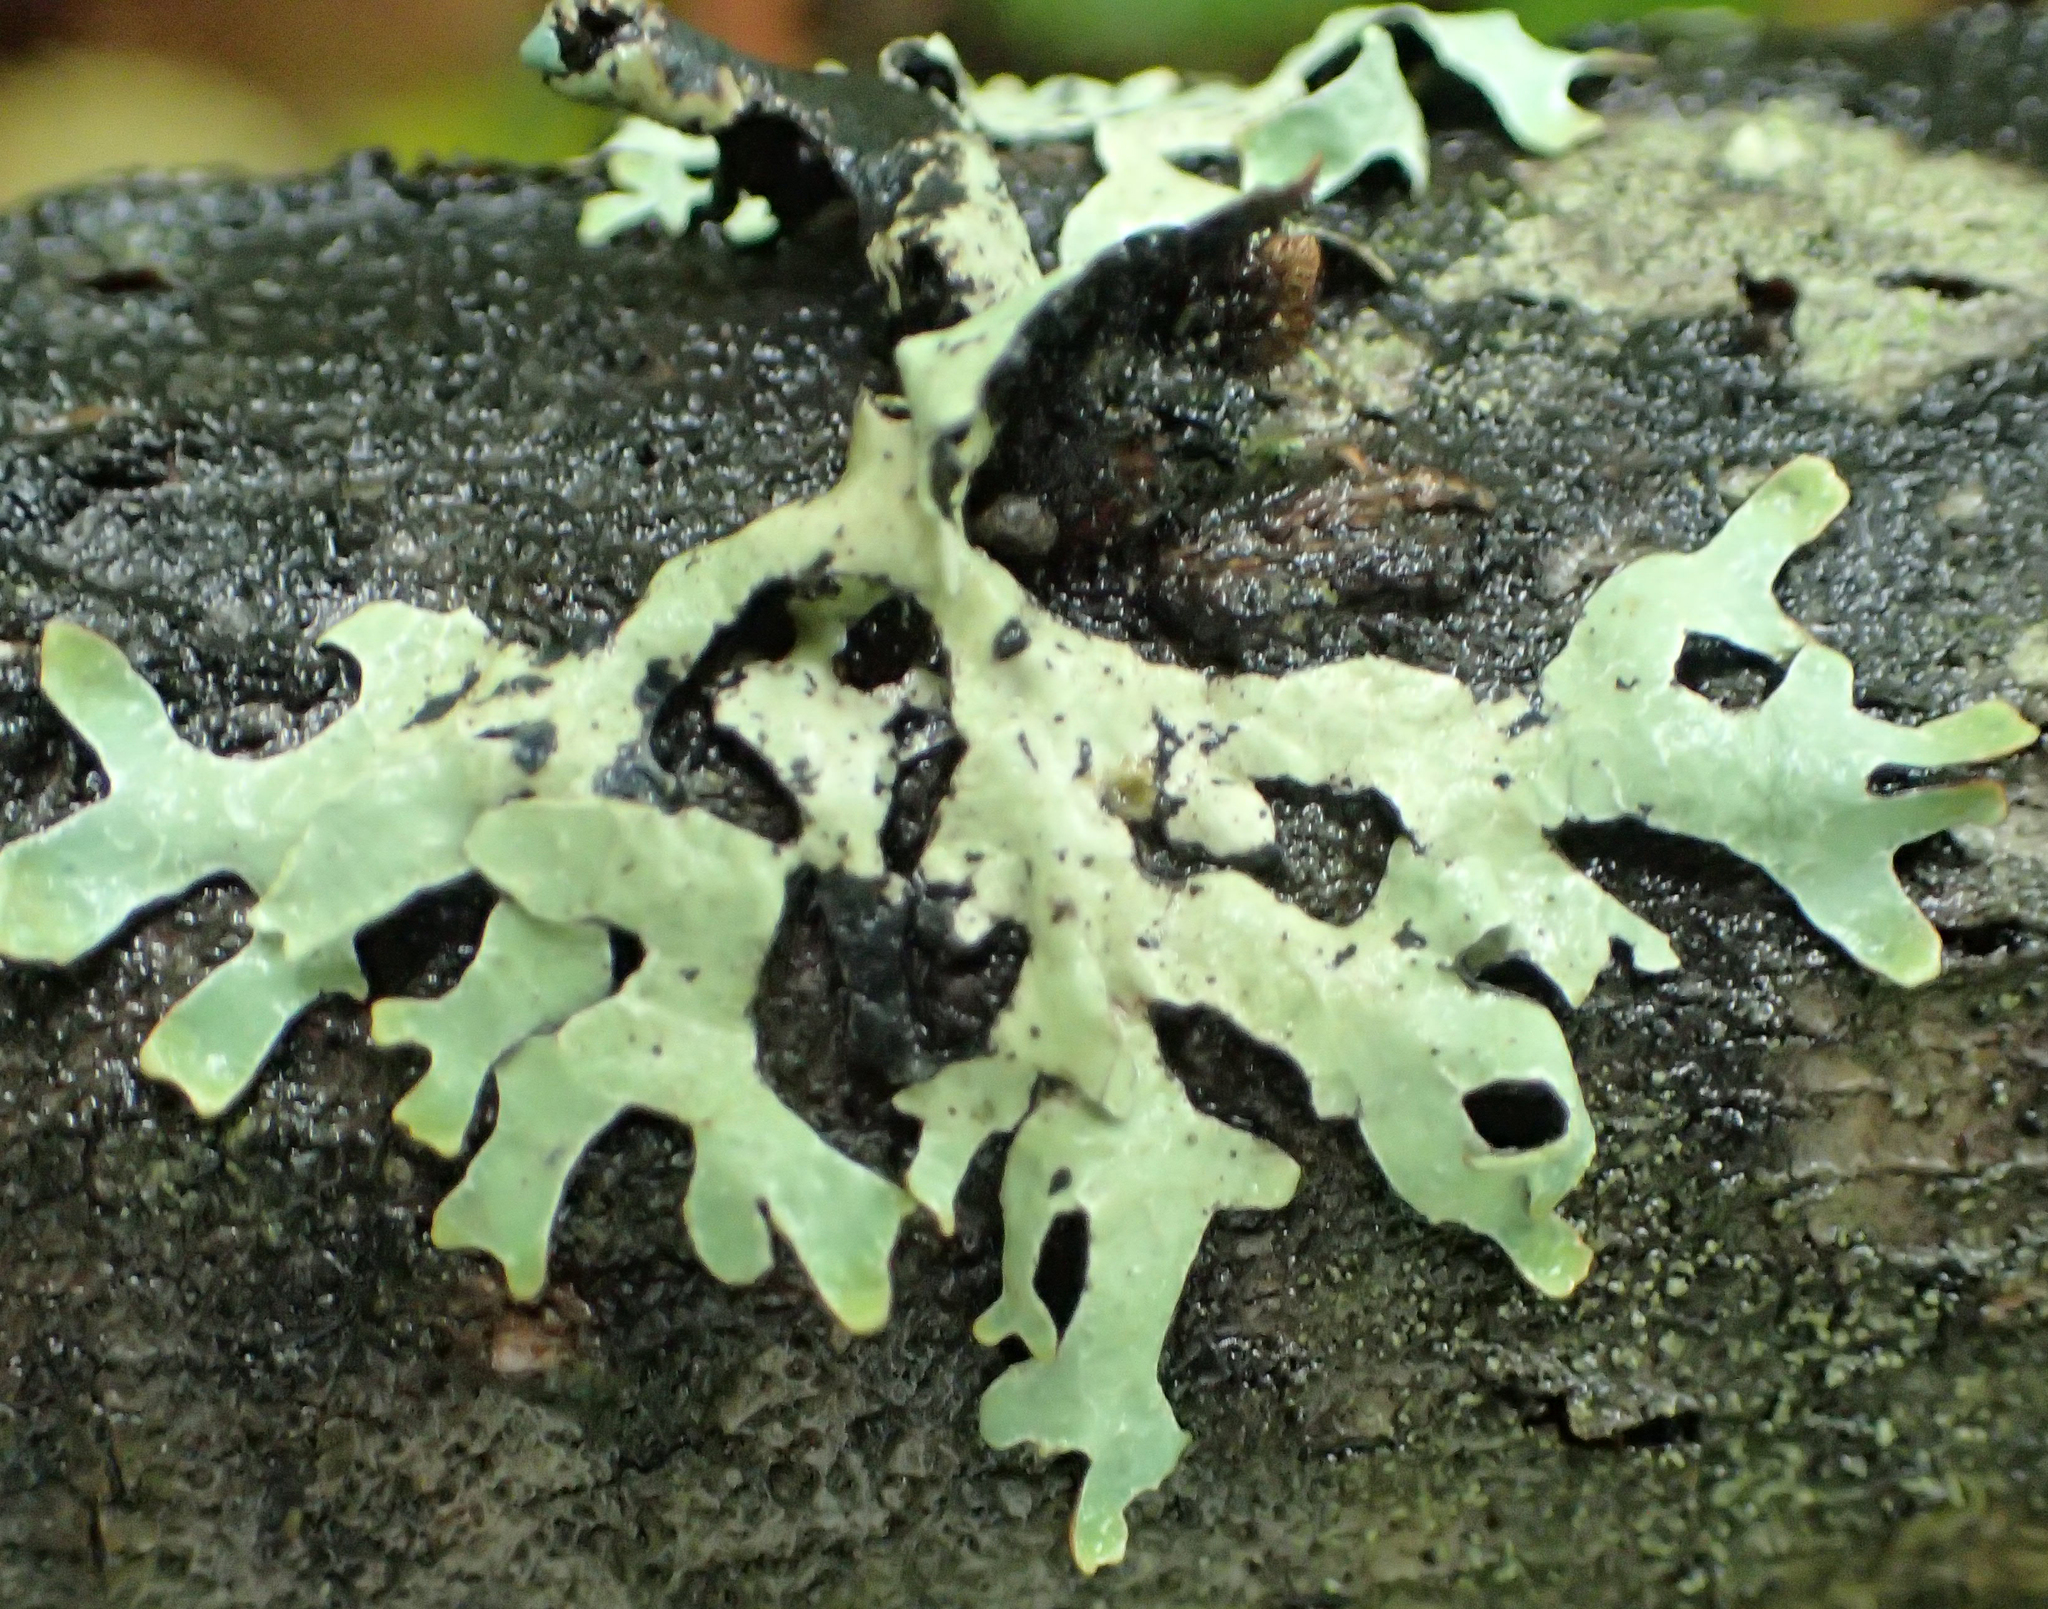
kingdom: Fungi
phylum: Ascomycota
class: Lecanoromycetes
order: Lecanorales
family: Parmeliaceae
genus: Parmelia
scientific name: Parmelia sulcata
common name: Netted shield lichen
